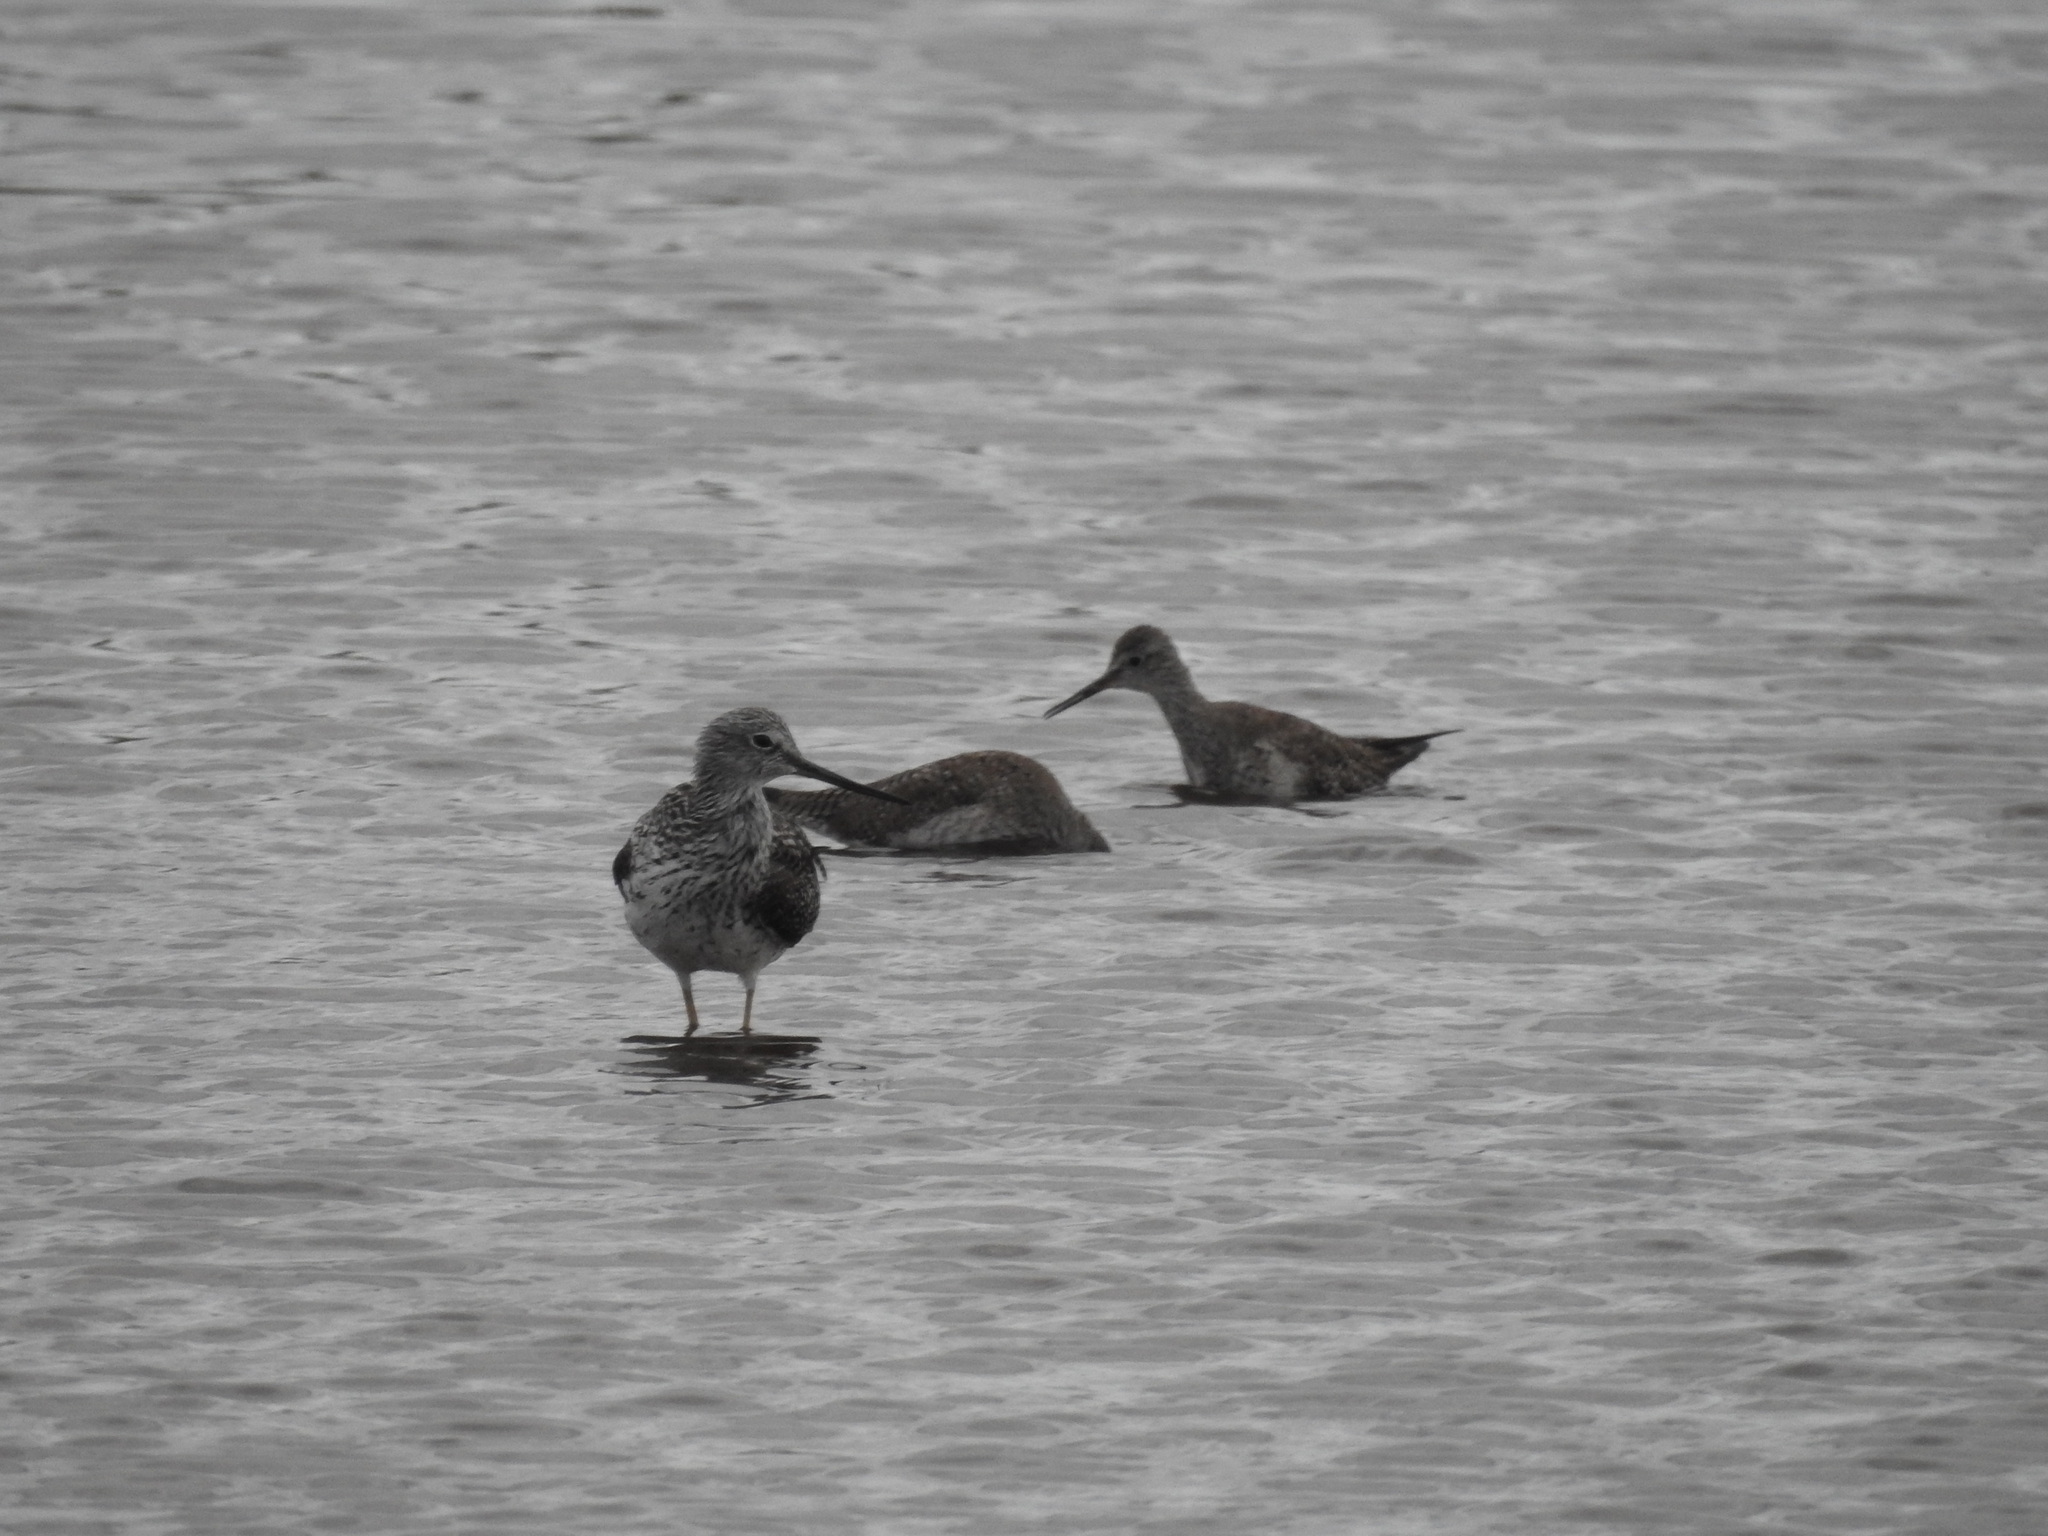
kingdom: Animalia
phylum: Chordata
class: Aves
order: Charadriiformes
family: Scolopacidae
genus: Tringa
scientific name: Tringa melanoleuca
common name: Greater yellowlegs
